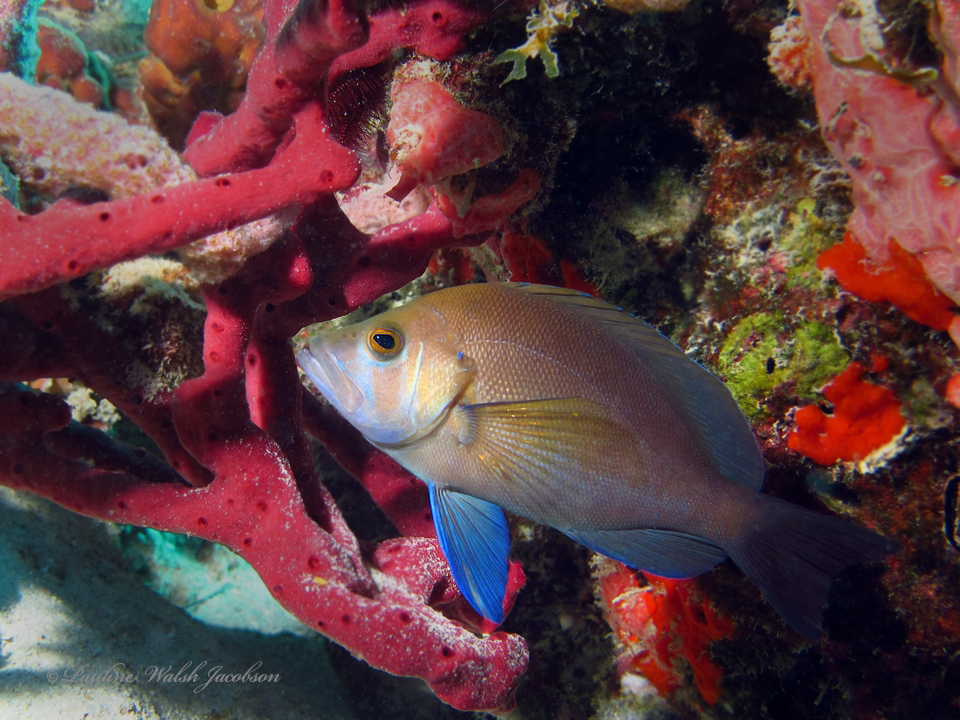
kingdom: Animalia
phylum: Chordata
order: Perciformes
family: Serranidae
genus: Hypoplectrus
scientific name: Hypoplectrus chlorurus
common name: Yellowtail hamlet
